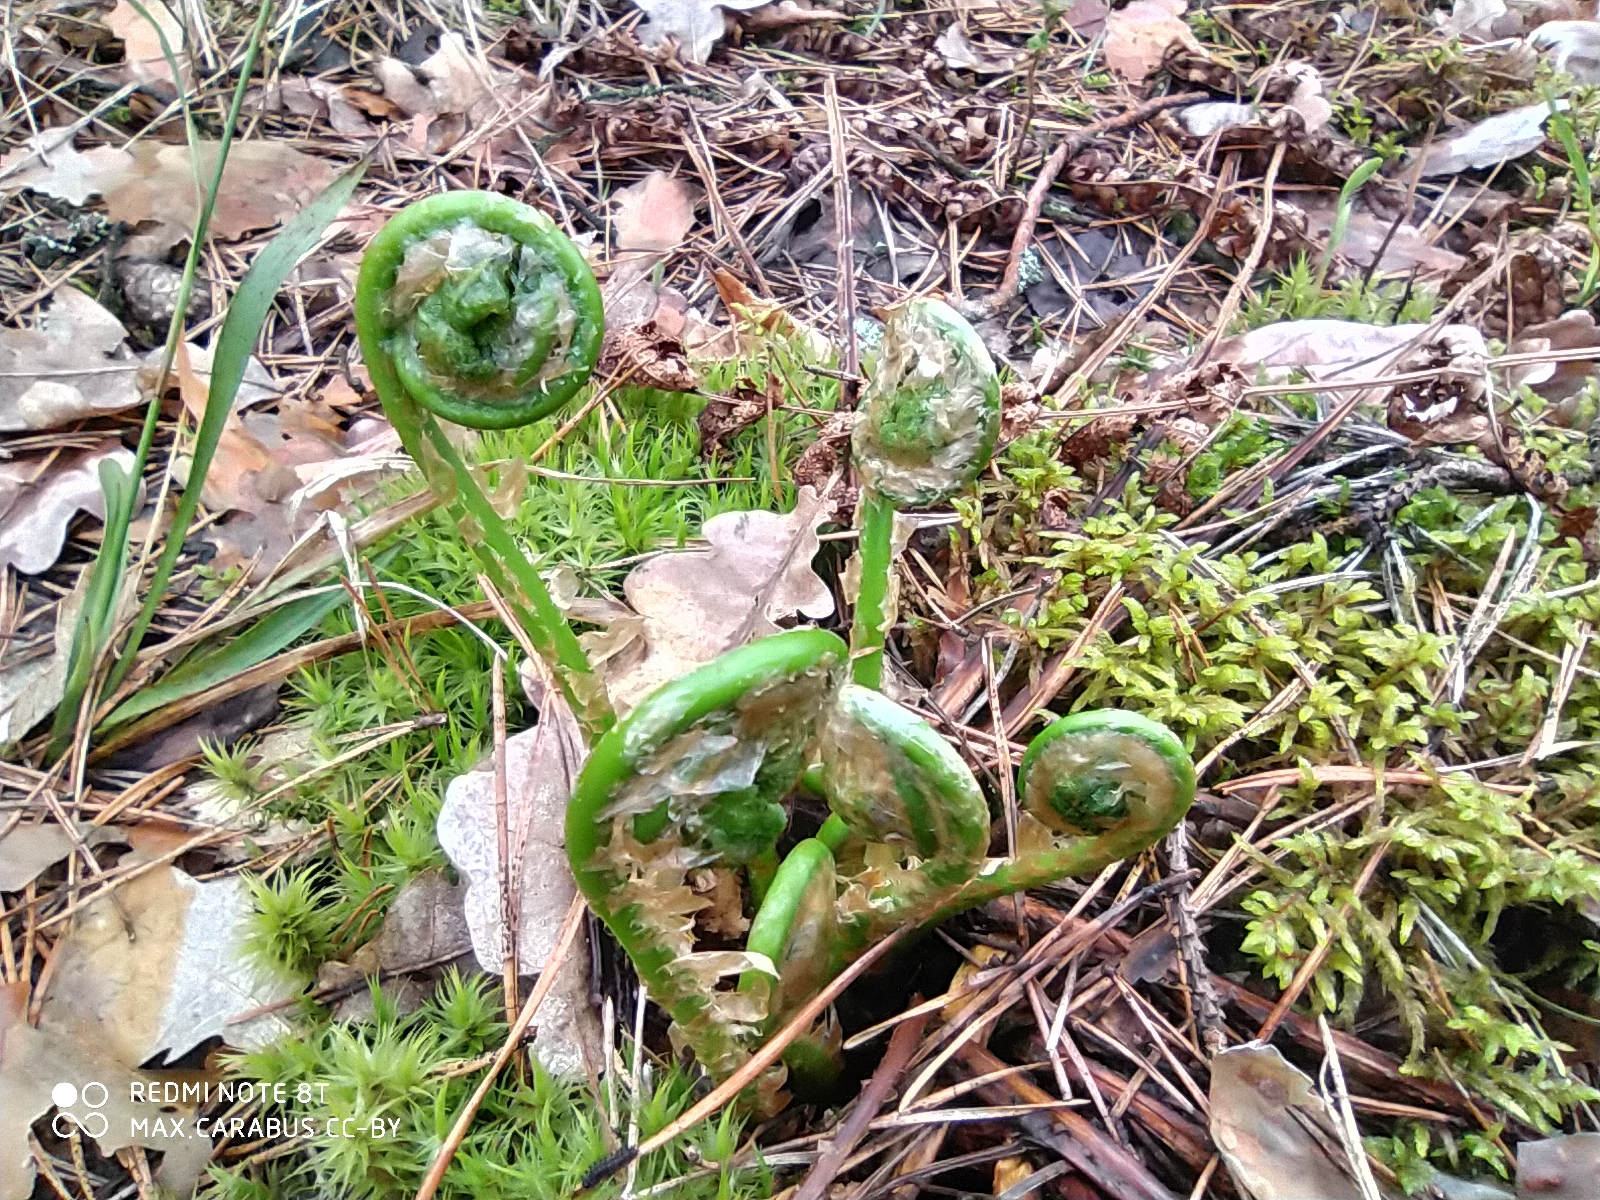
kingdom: Plantae
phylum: Tracheophyta
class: Polypodiopsida
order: Polypodiales
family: Dryopteridaceae
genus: Dryopteris
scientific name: Dryopteris filix-mas
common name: Male fern
